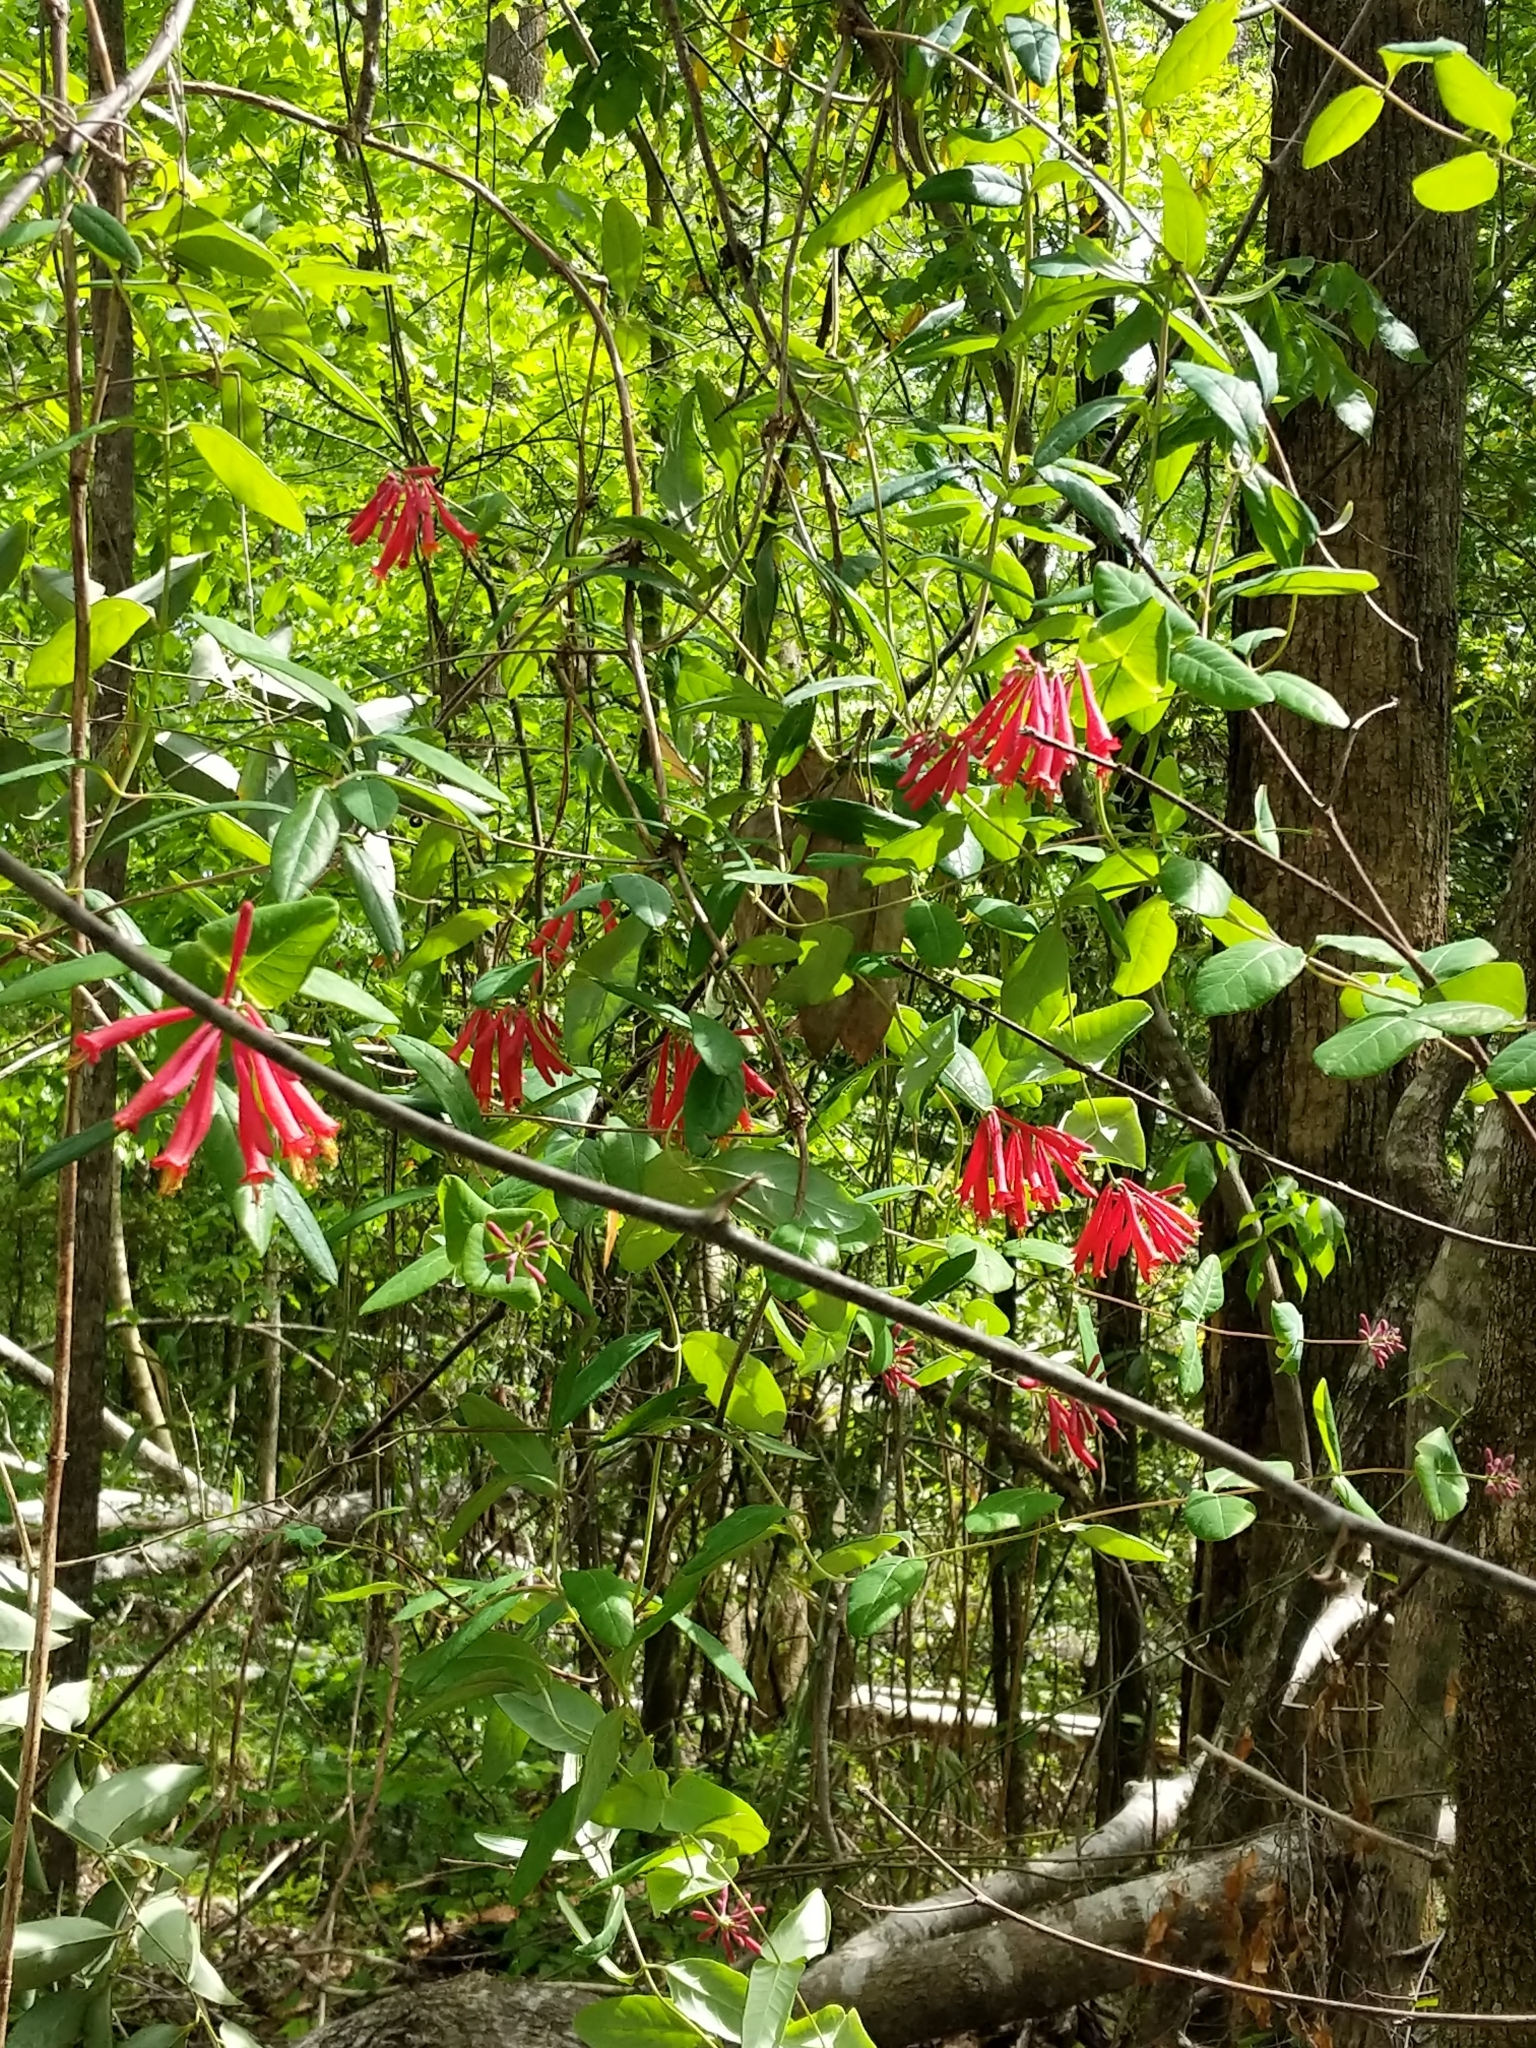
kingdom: Plantae
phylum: Tracheophyta
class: Magnoliopsida
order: Dipsacales
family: Caprifoliaceae
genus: Lonicera
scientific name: Lonicera sempervirens
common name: Coral honeysuckle
